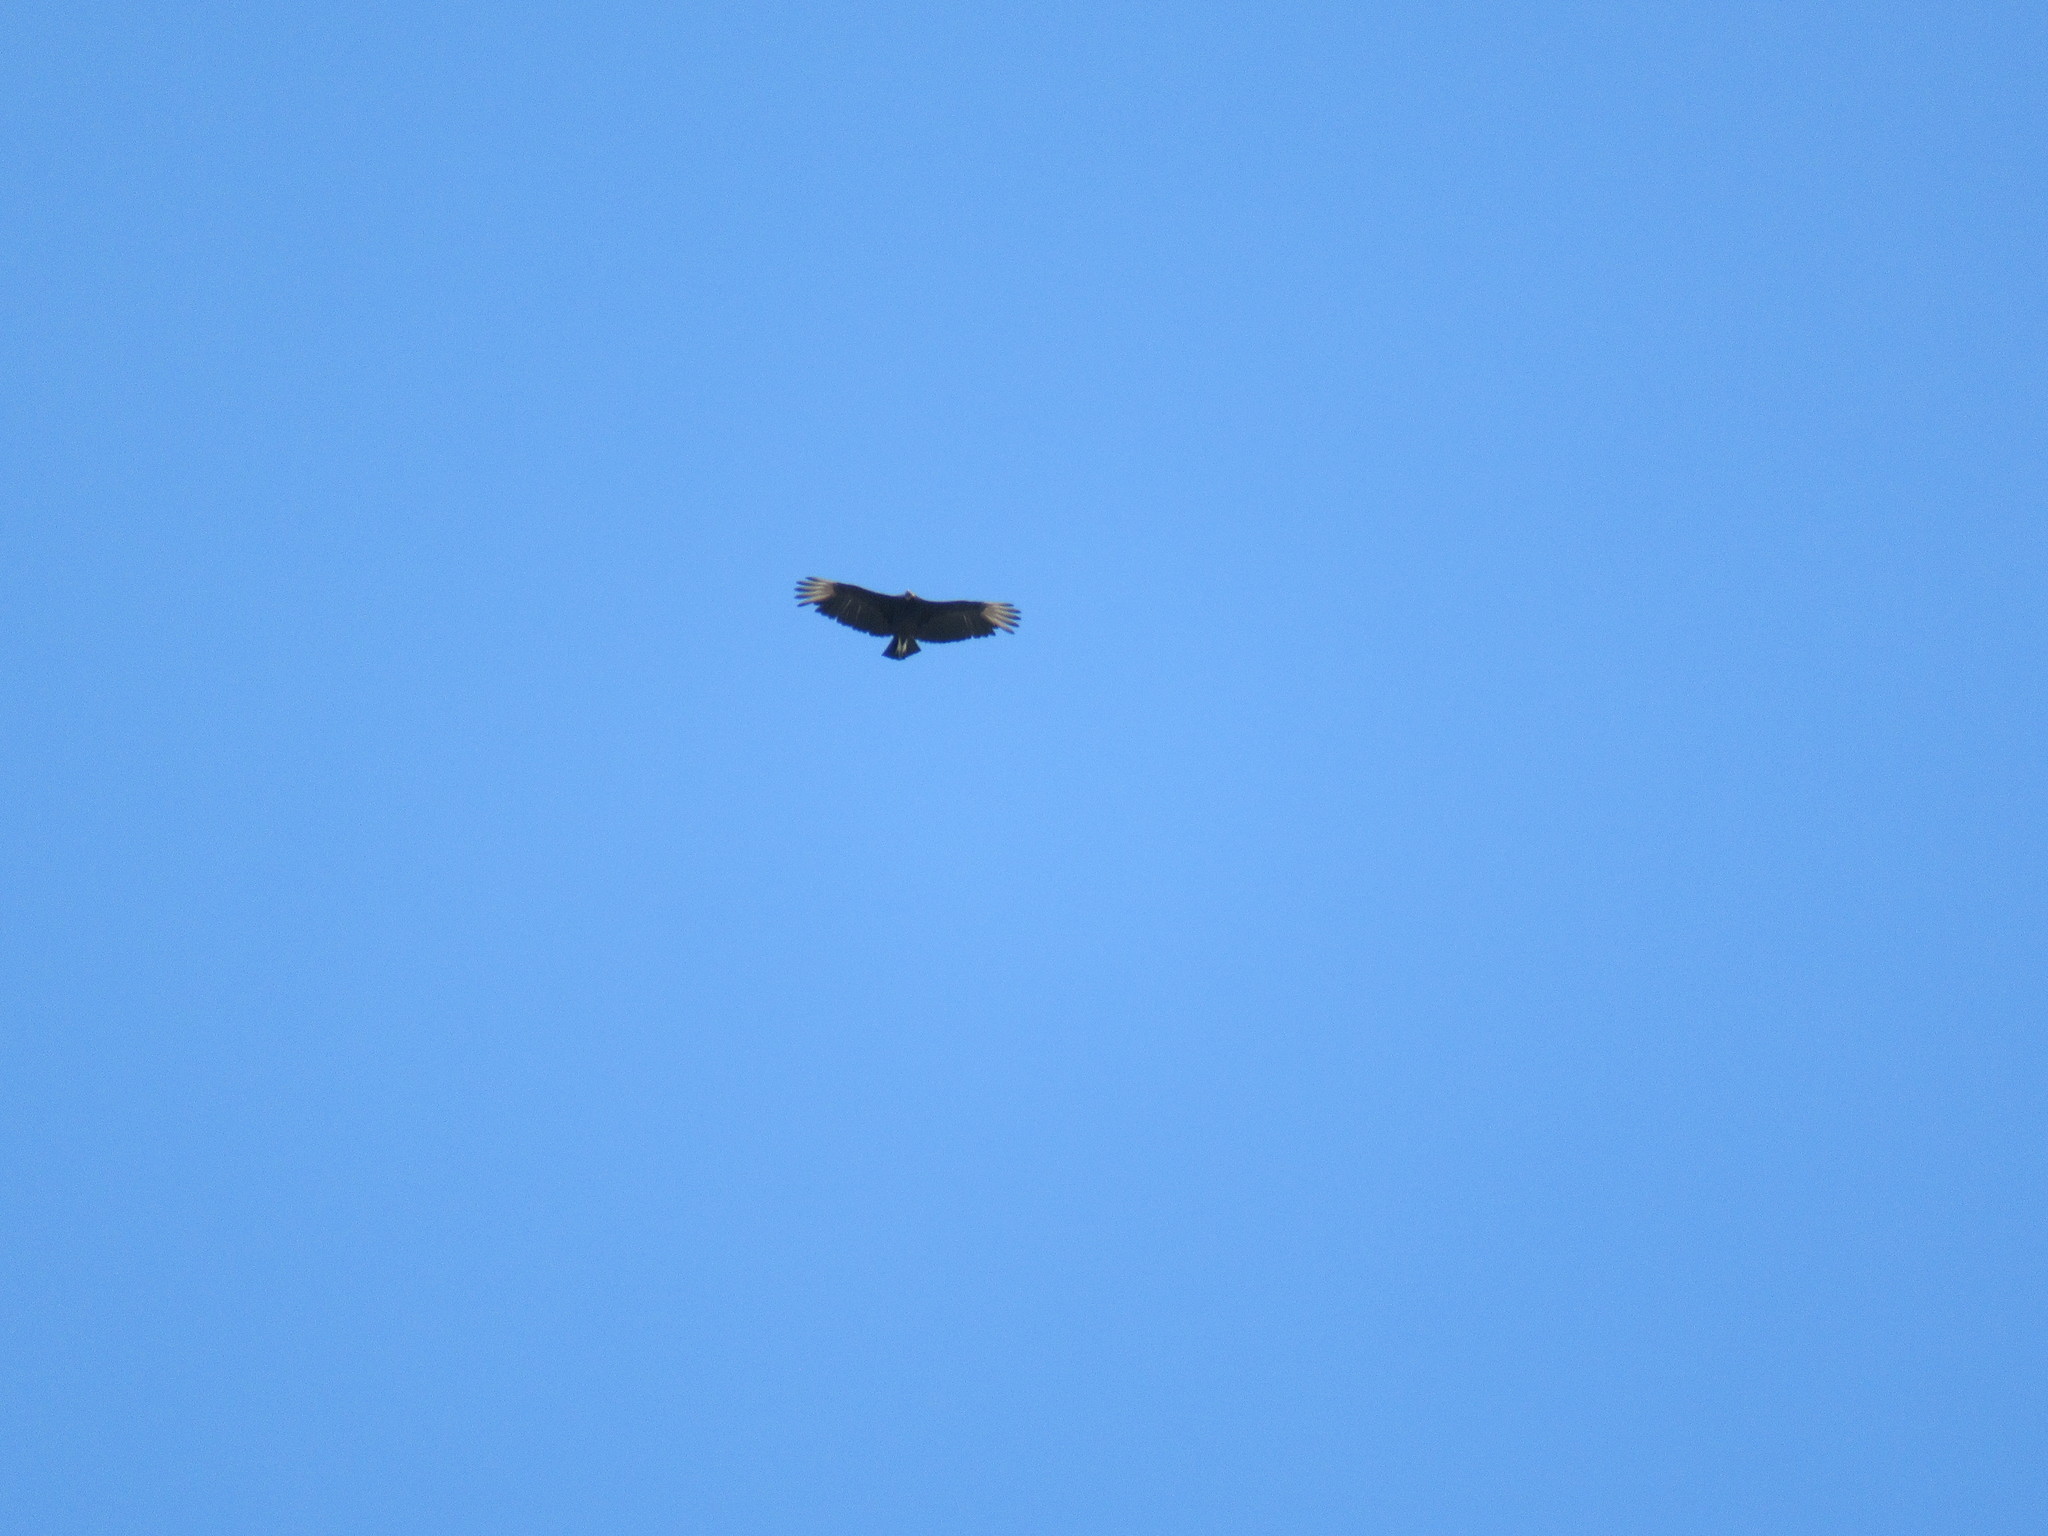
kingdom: Animalia
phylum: Chordata
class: Aves
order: Accipitriformes
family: Cathartidae
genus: Coragyps
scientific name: Coragyps atratus
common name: Black vulture
